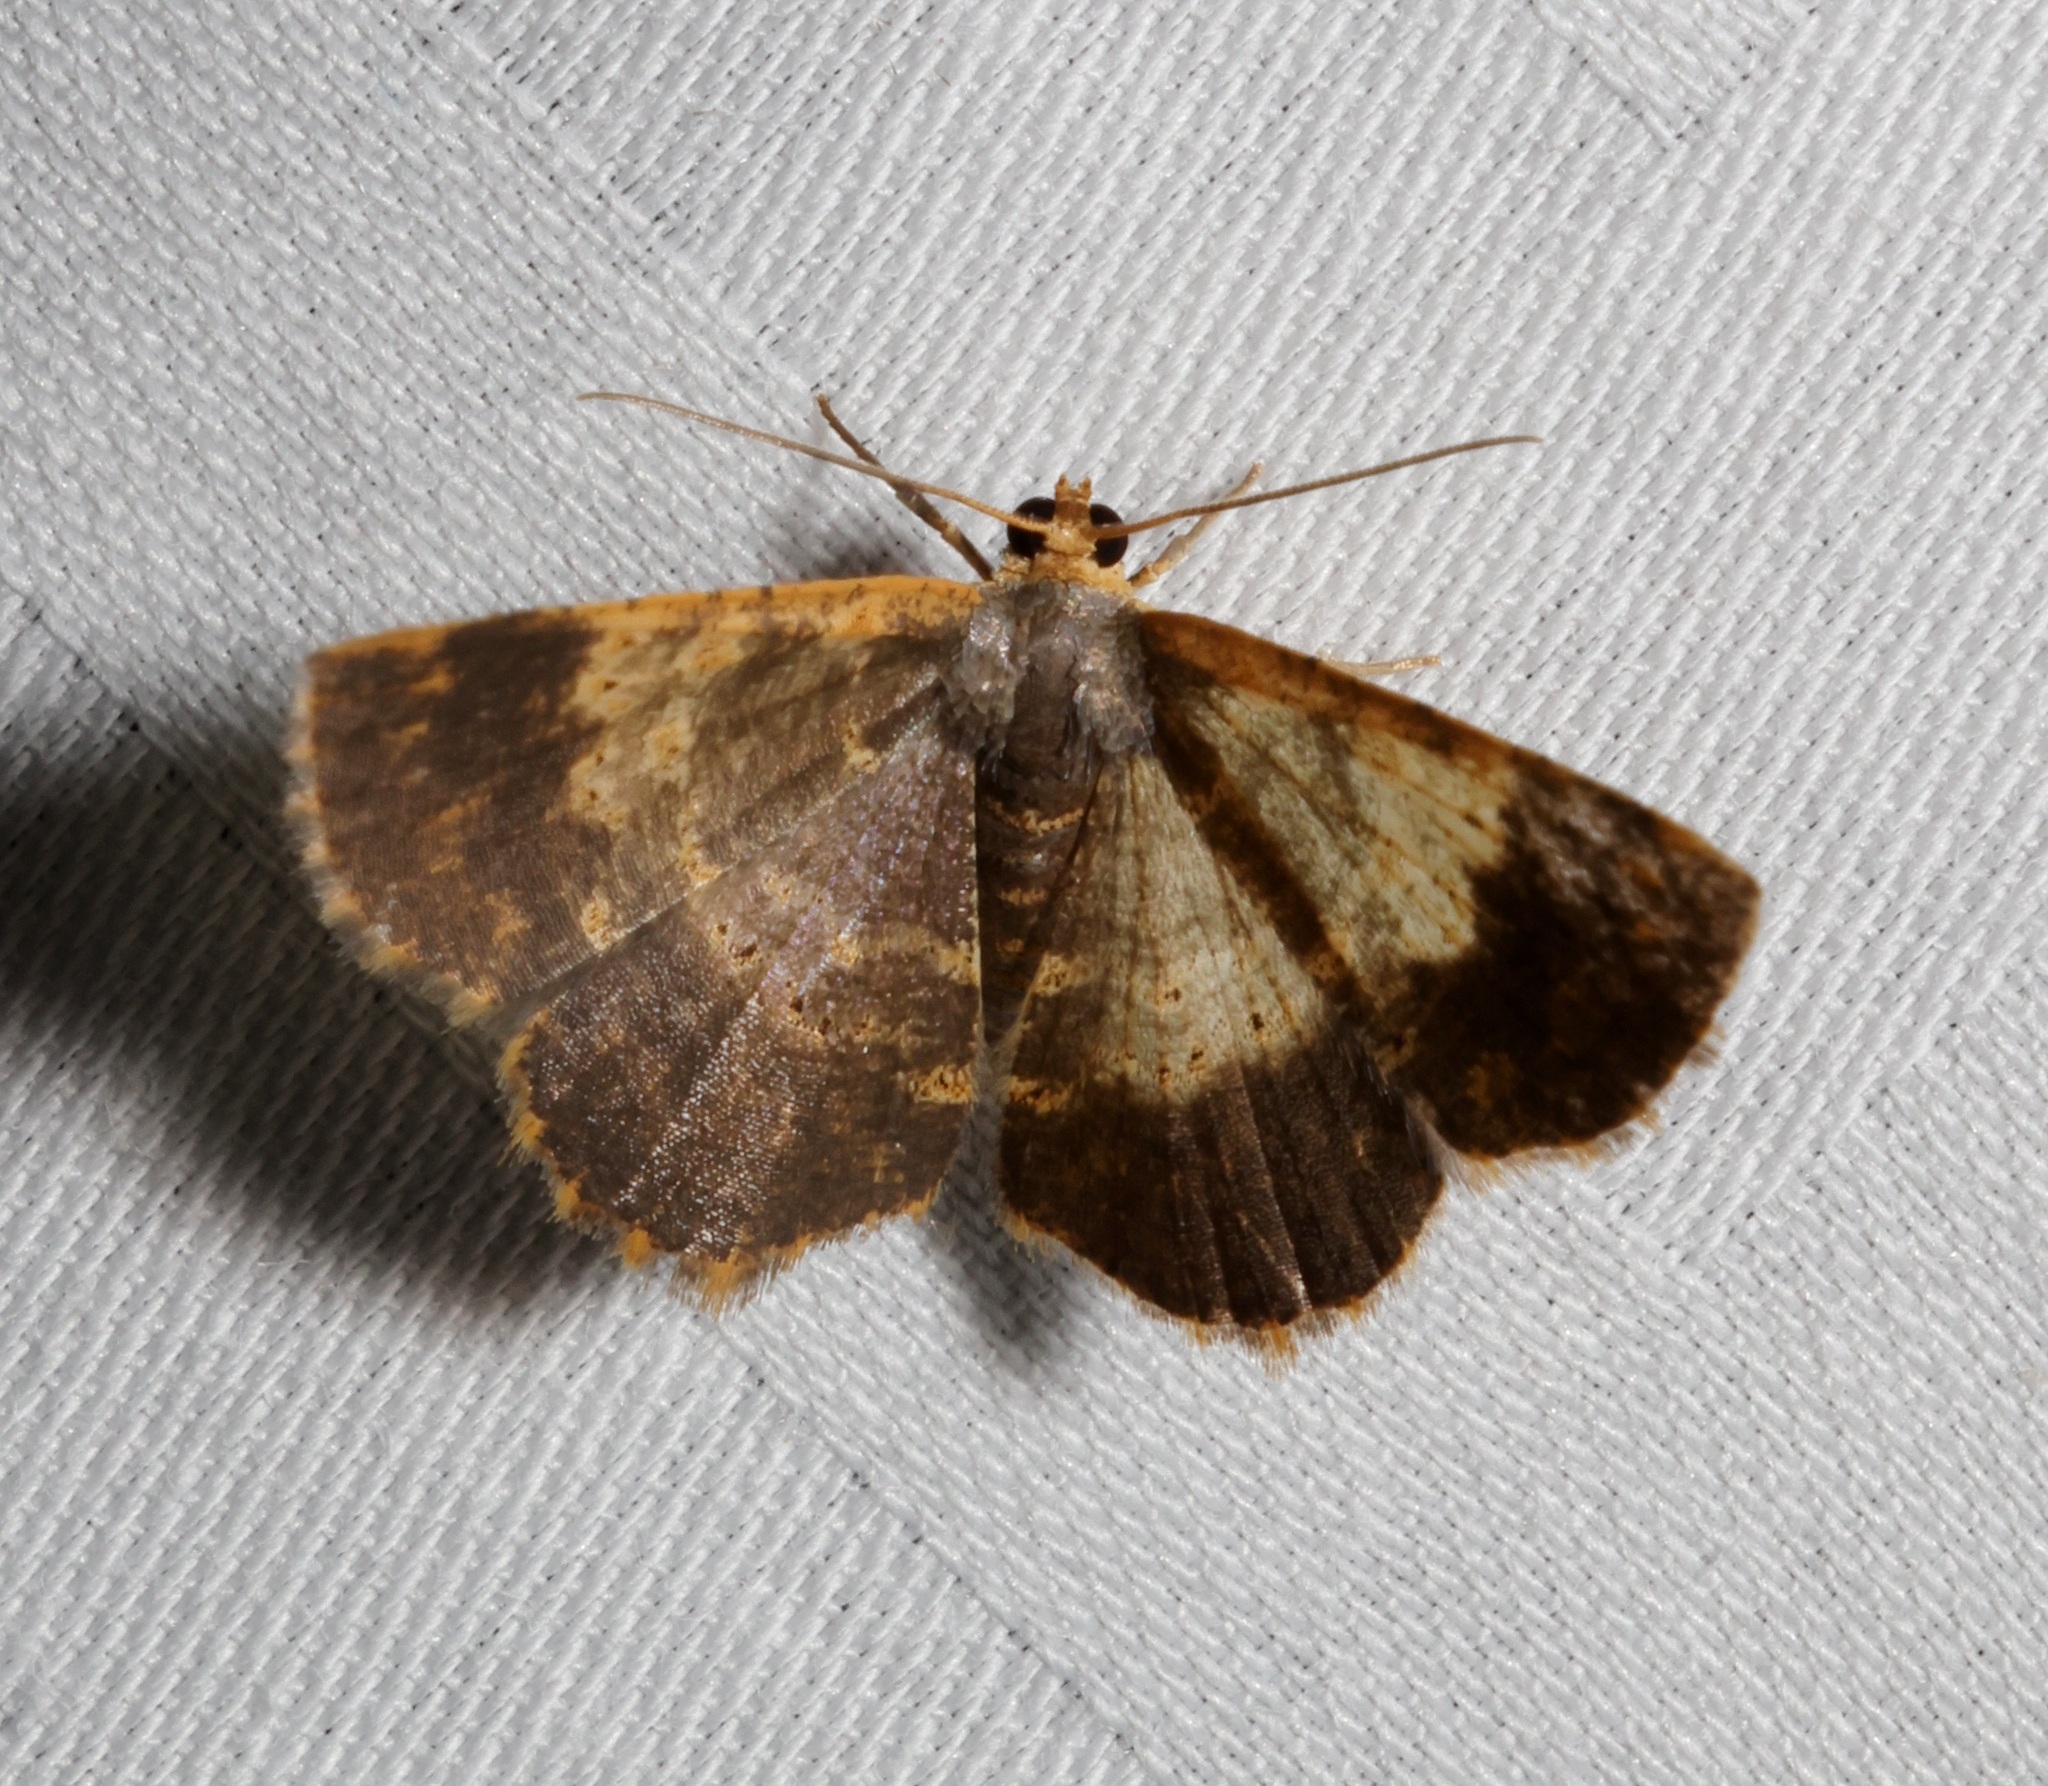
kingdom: Animalia
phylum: Arthropoda
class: Insecta
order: Lepidoptera
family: Geometridae
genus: Peratophyga
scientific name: Peratophyga crista
